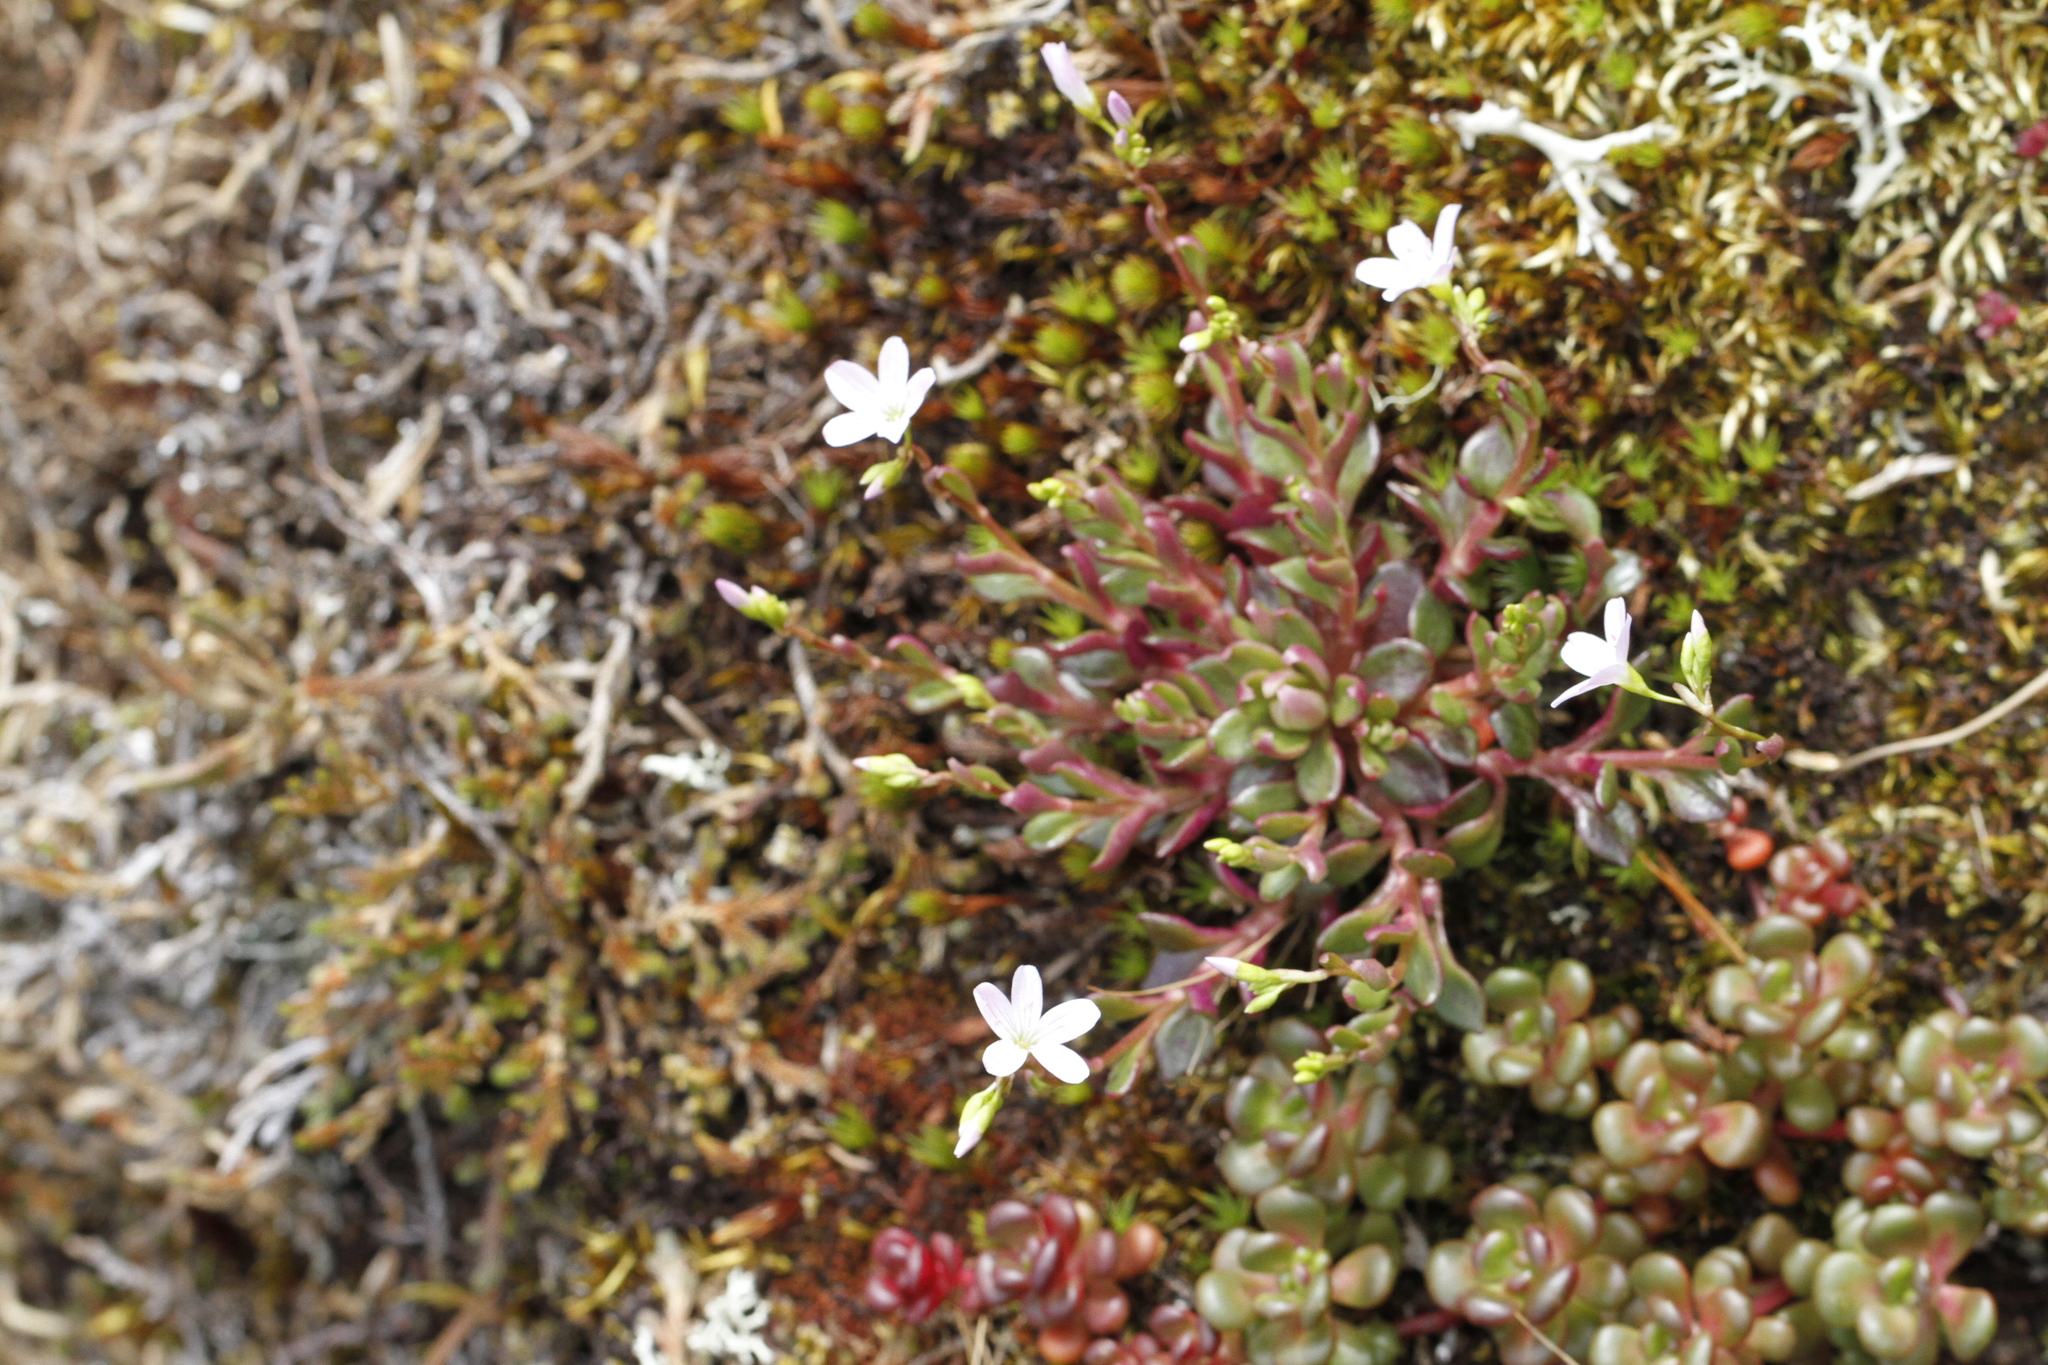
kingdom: Plantae
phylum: Tracheophyta
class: Magnoliopsida
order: Caryophyllales
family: Montiaceae
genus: Montia
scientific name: Montia parvifolia
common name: Small-leaved blinks
